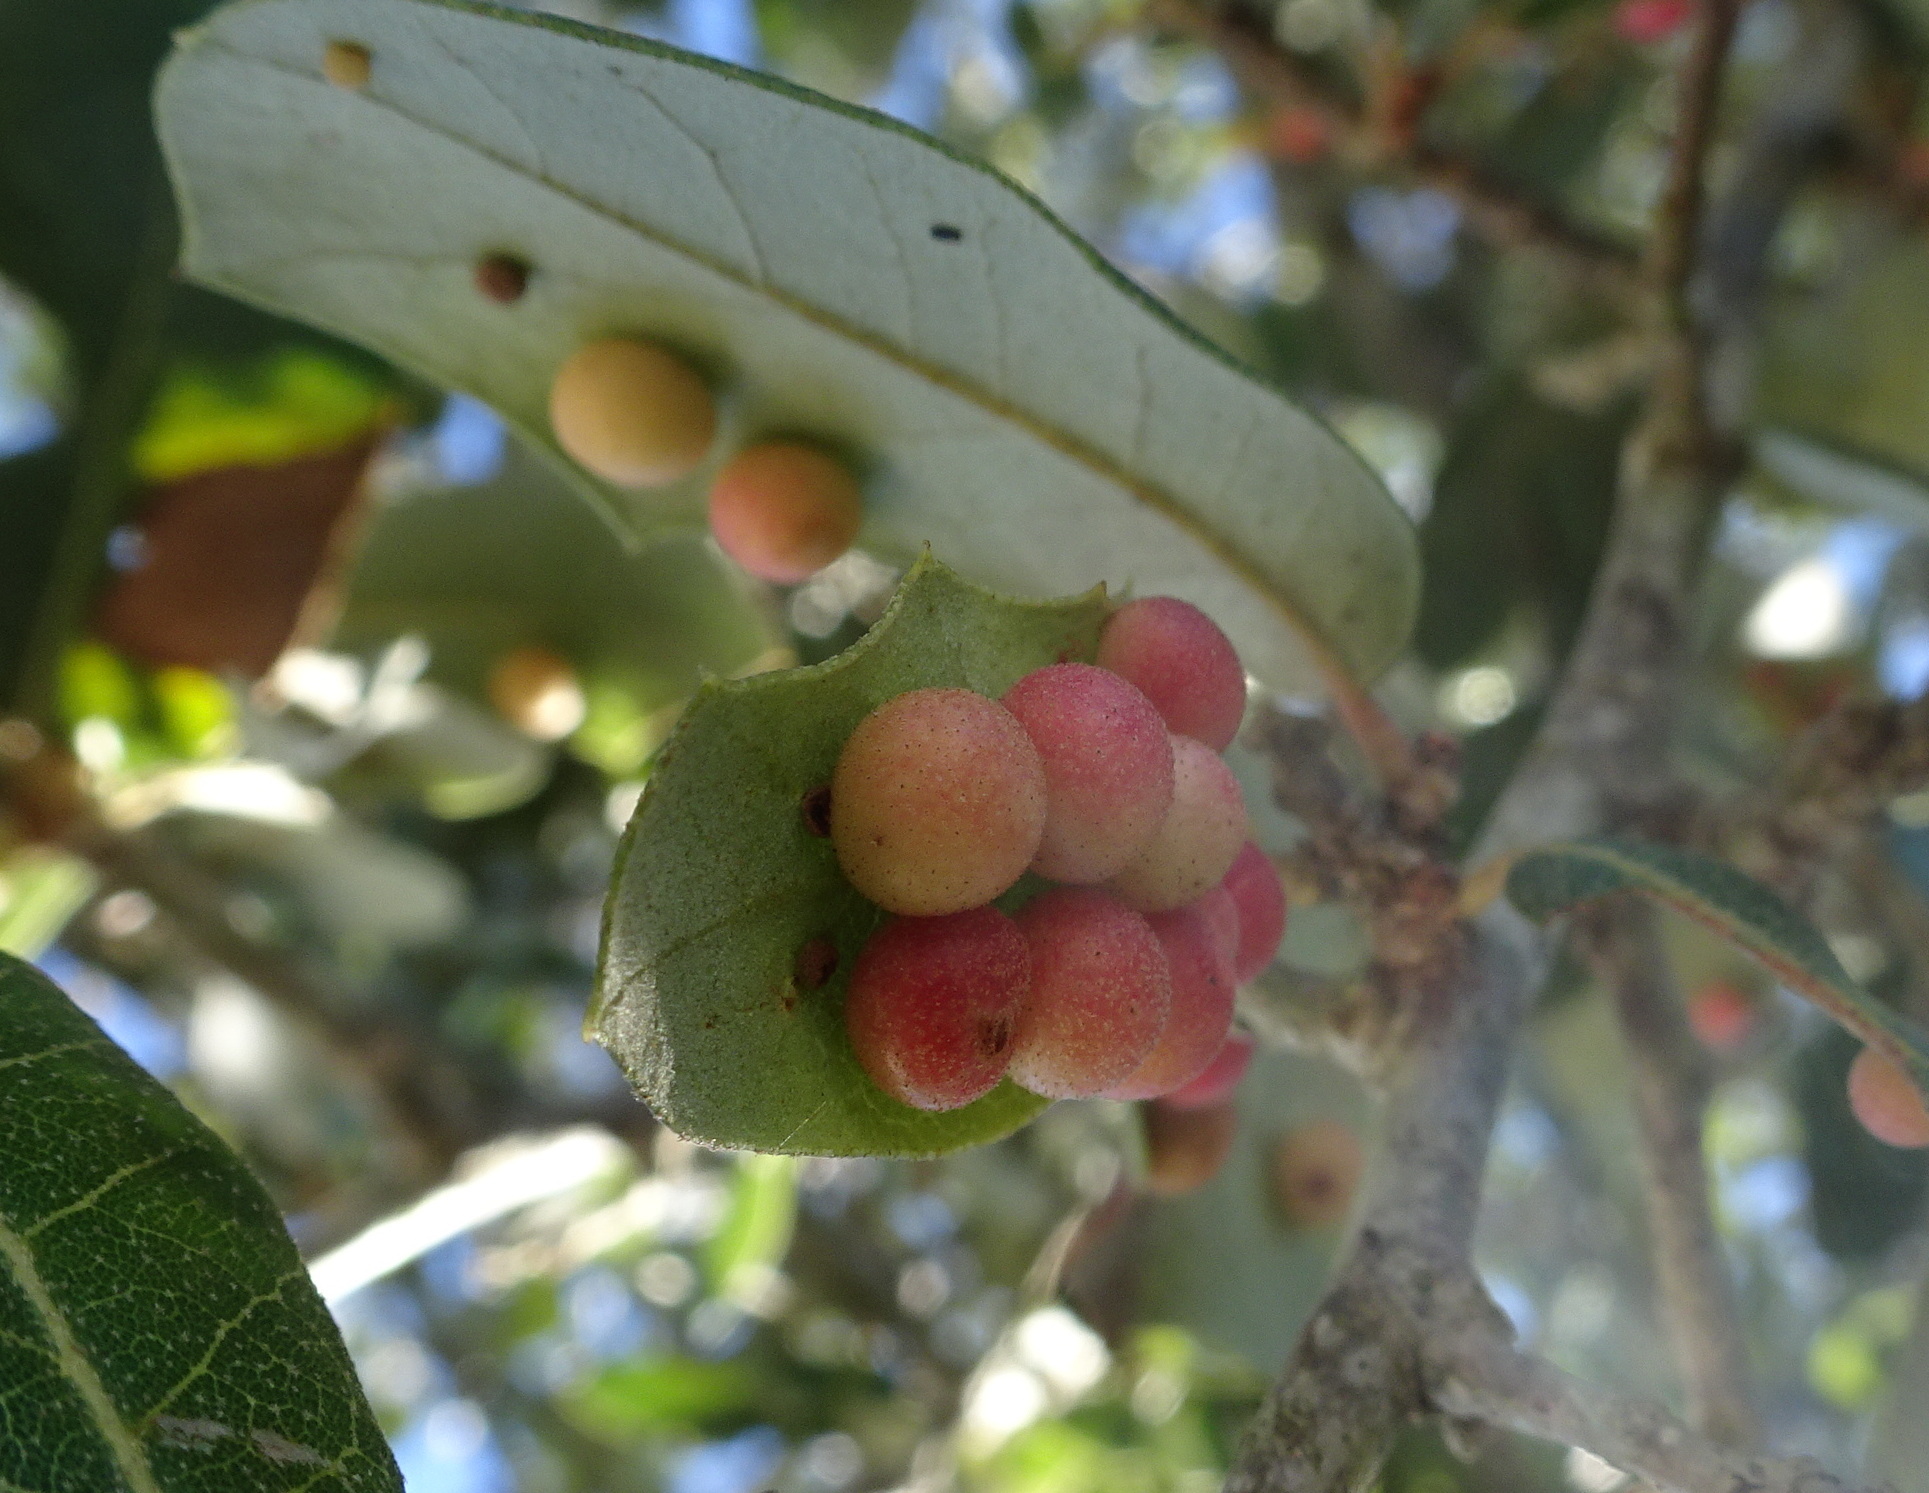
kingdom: Animalia
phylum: Arthropoda
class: Insecta
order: Hymenoptera
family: Cynipidae
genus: Belonocnema
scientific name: Belonocnema kinseyi
